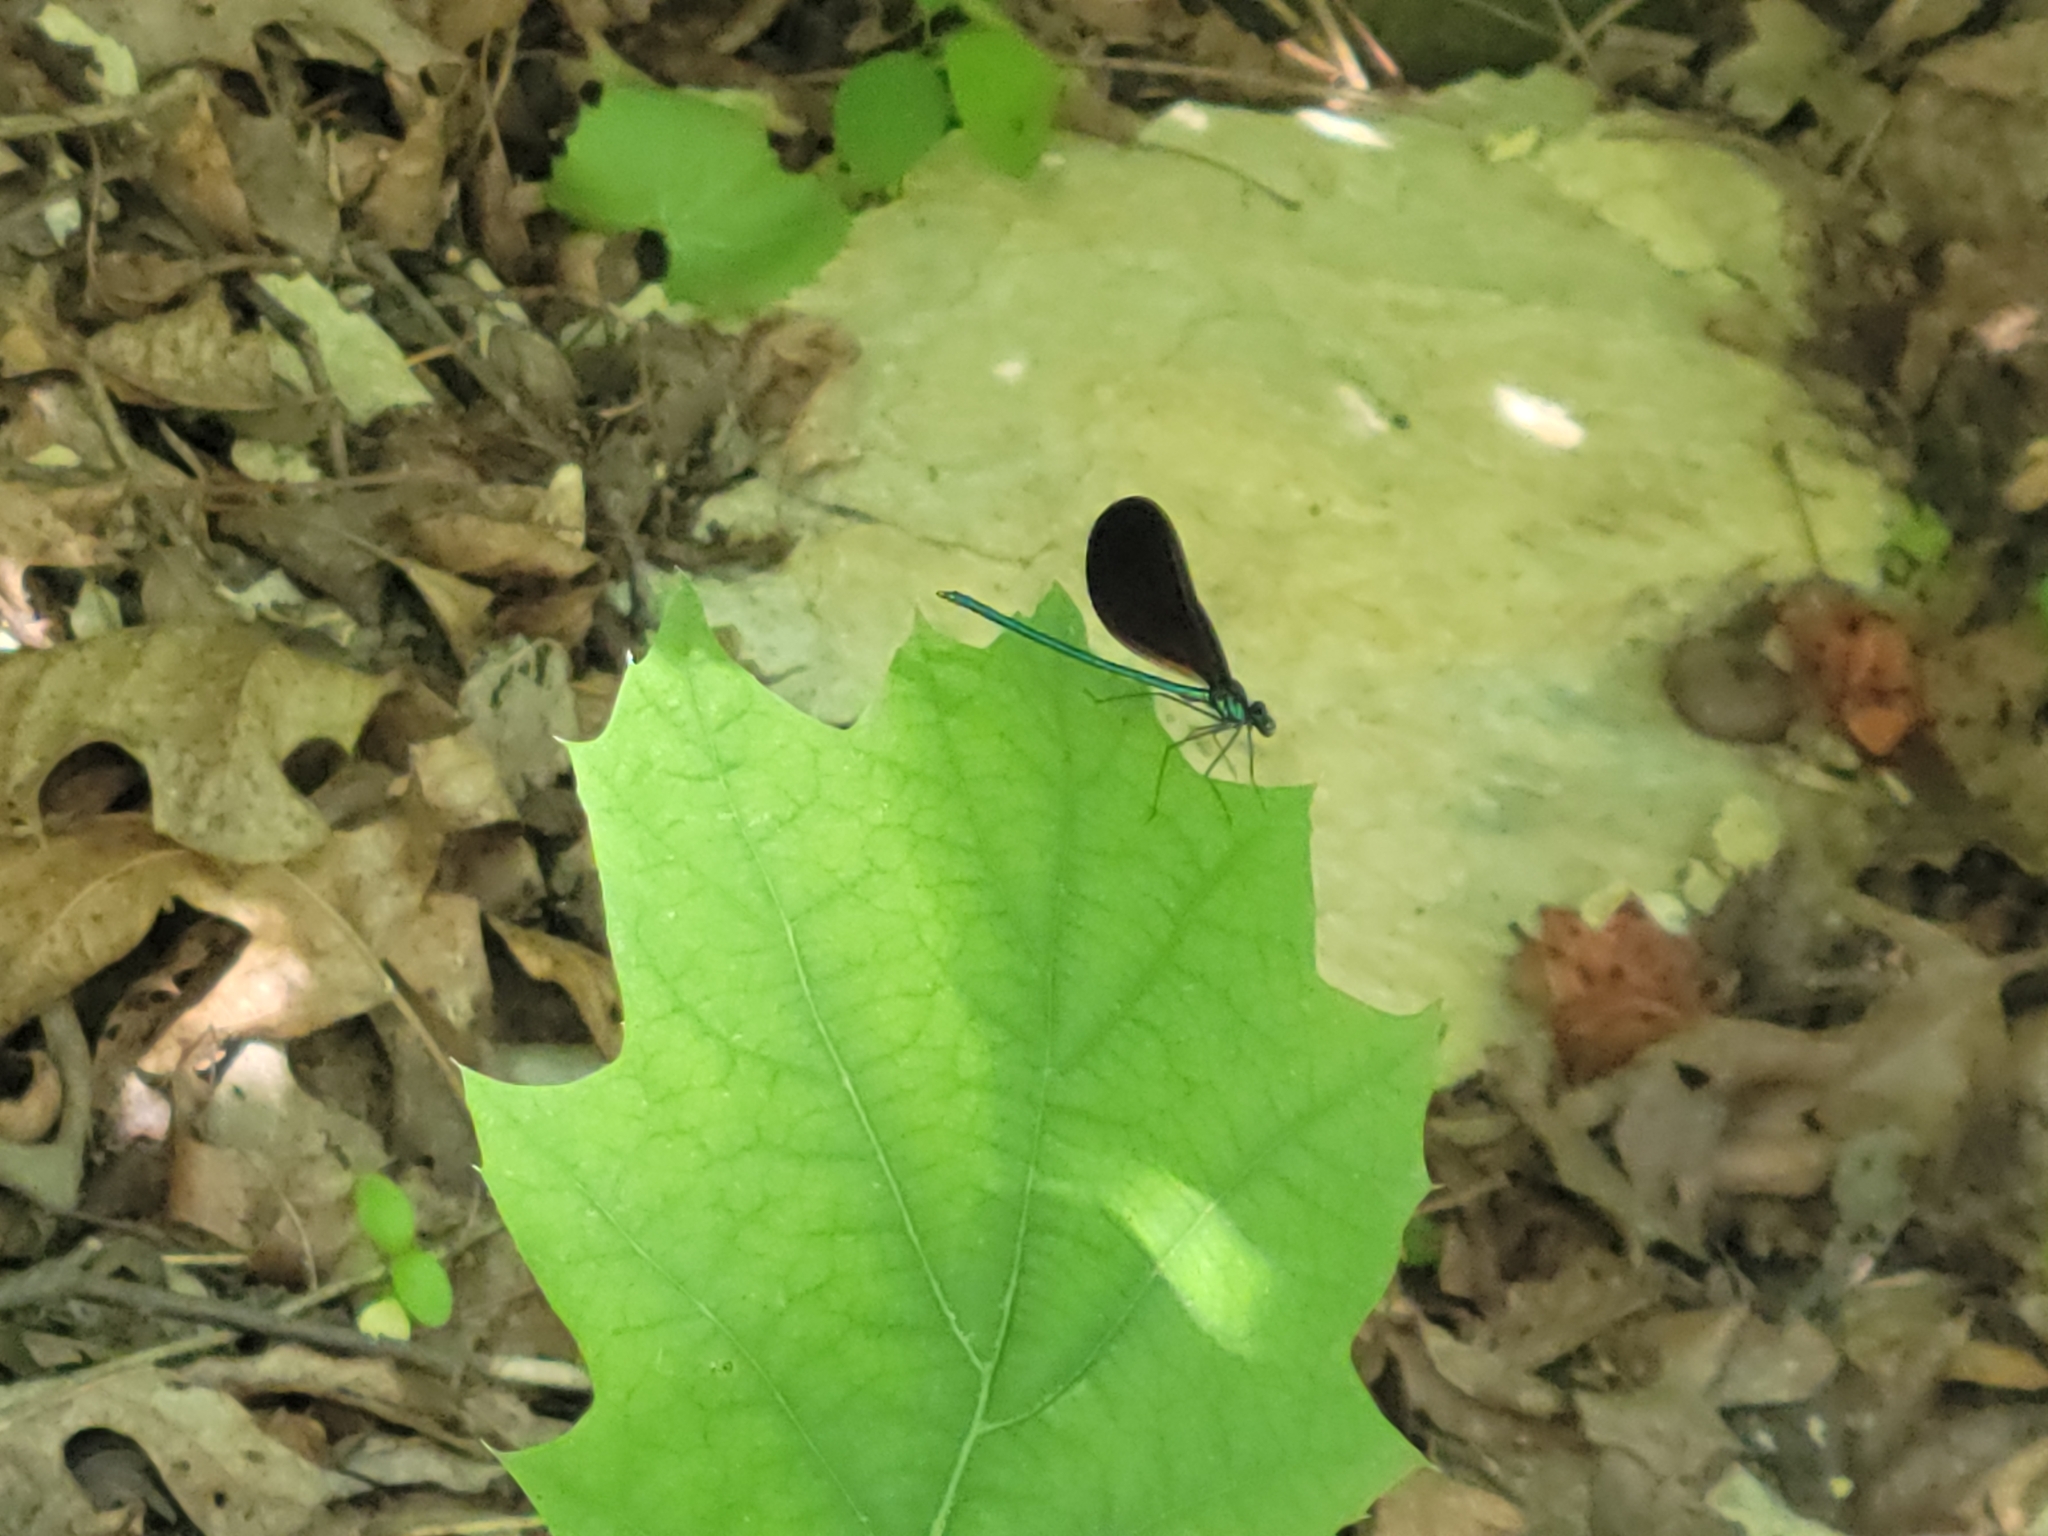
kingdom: Animalia
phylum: Arthropoda
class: Insecta
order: Odonata
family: Calopterygidae
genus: Calopteryx
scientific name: Calopteryx maculata
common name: Ebony jewelwing
